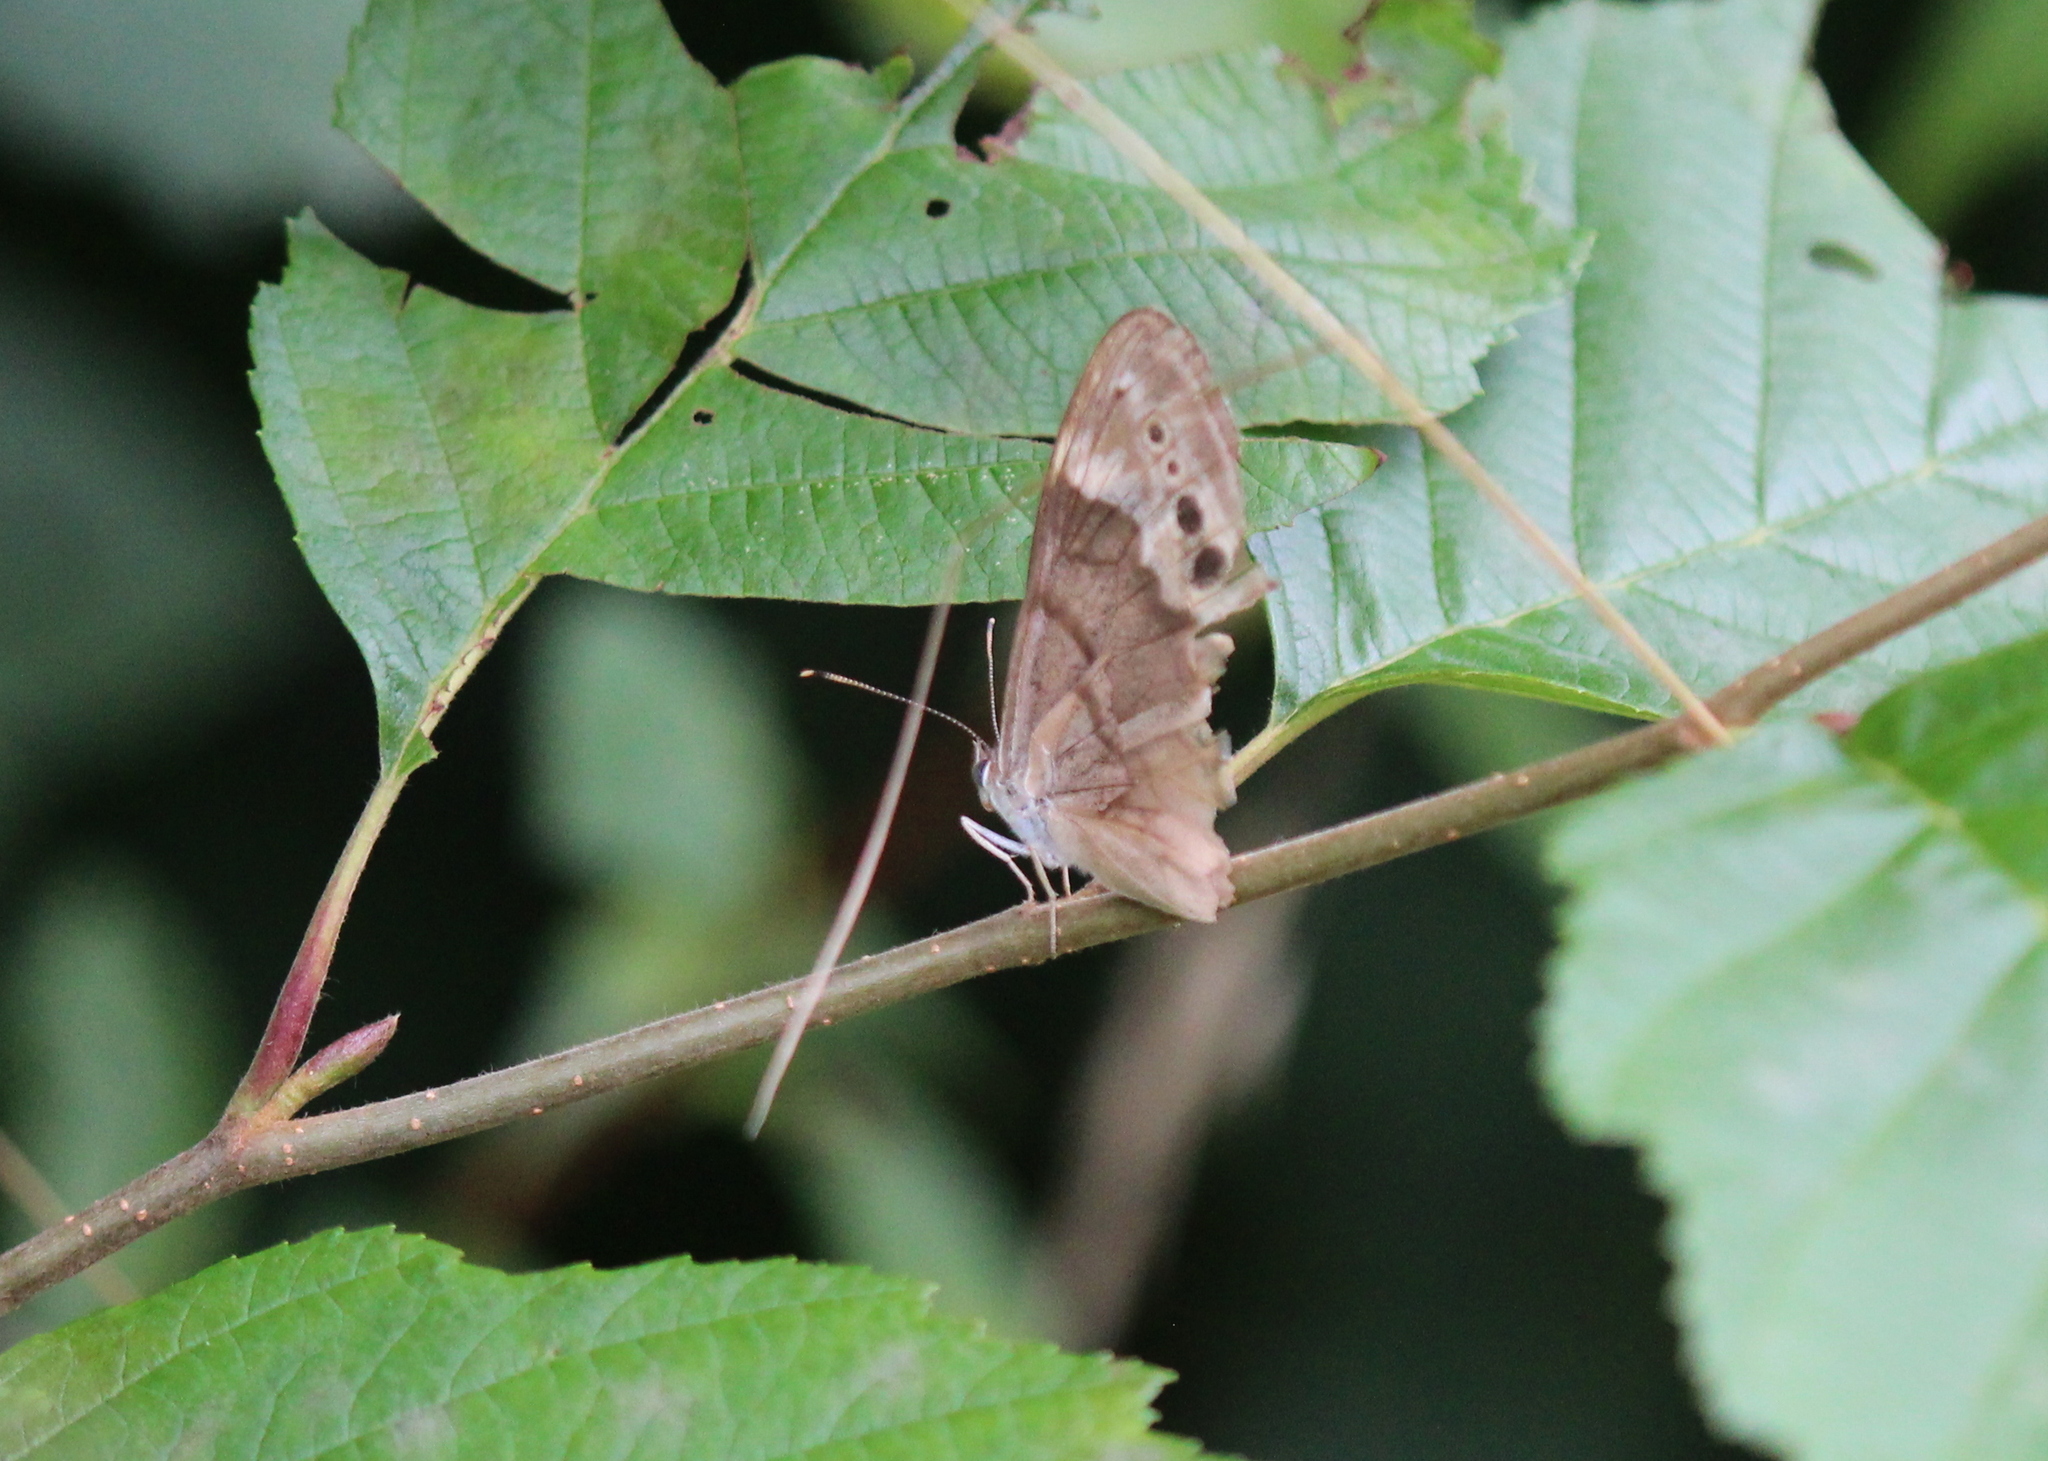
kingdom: Animalia
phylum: Arthropoda
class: Insecta
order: Lepidoptera
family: Nymphalidae
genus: Lethe
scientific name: Lethe anthedon
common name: Northern pearly-eye
